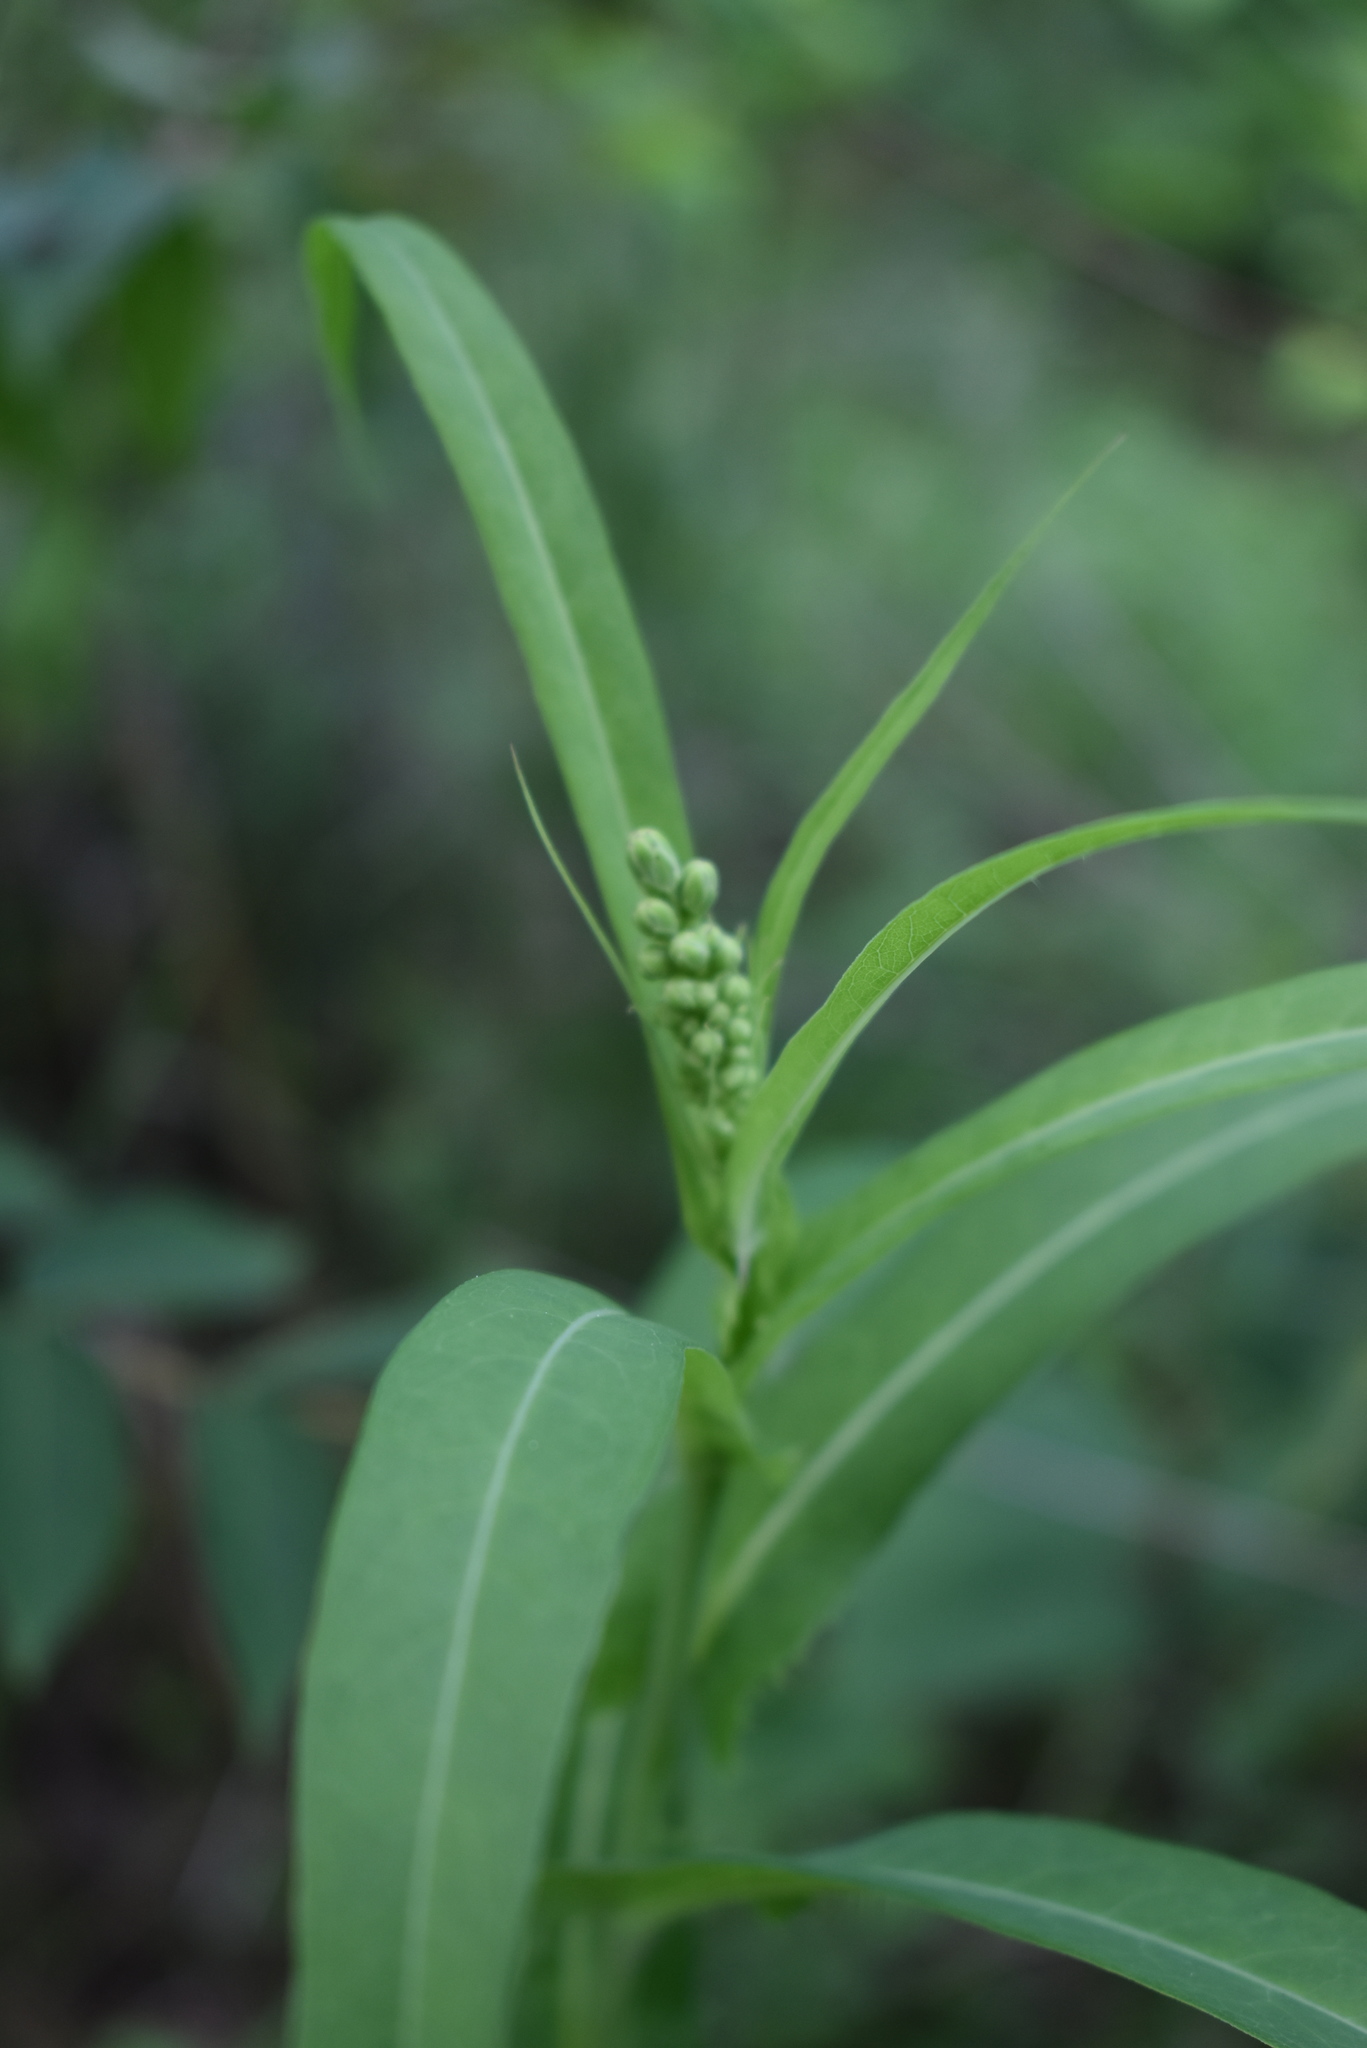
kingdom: Plantae
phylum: Tracheophyta
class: Magnoliopsida
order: Asterales
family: Asteraceae
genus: Lactuca
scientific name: Lactuca indica
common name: Wild lettuce
